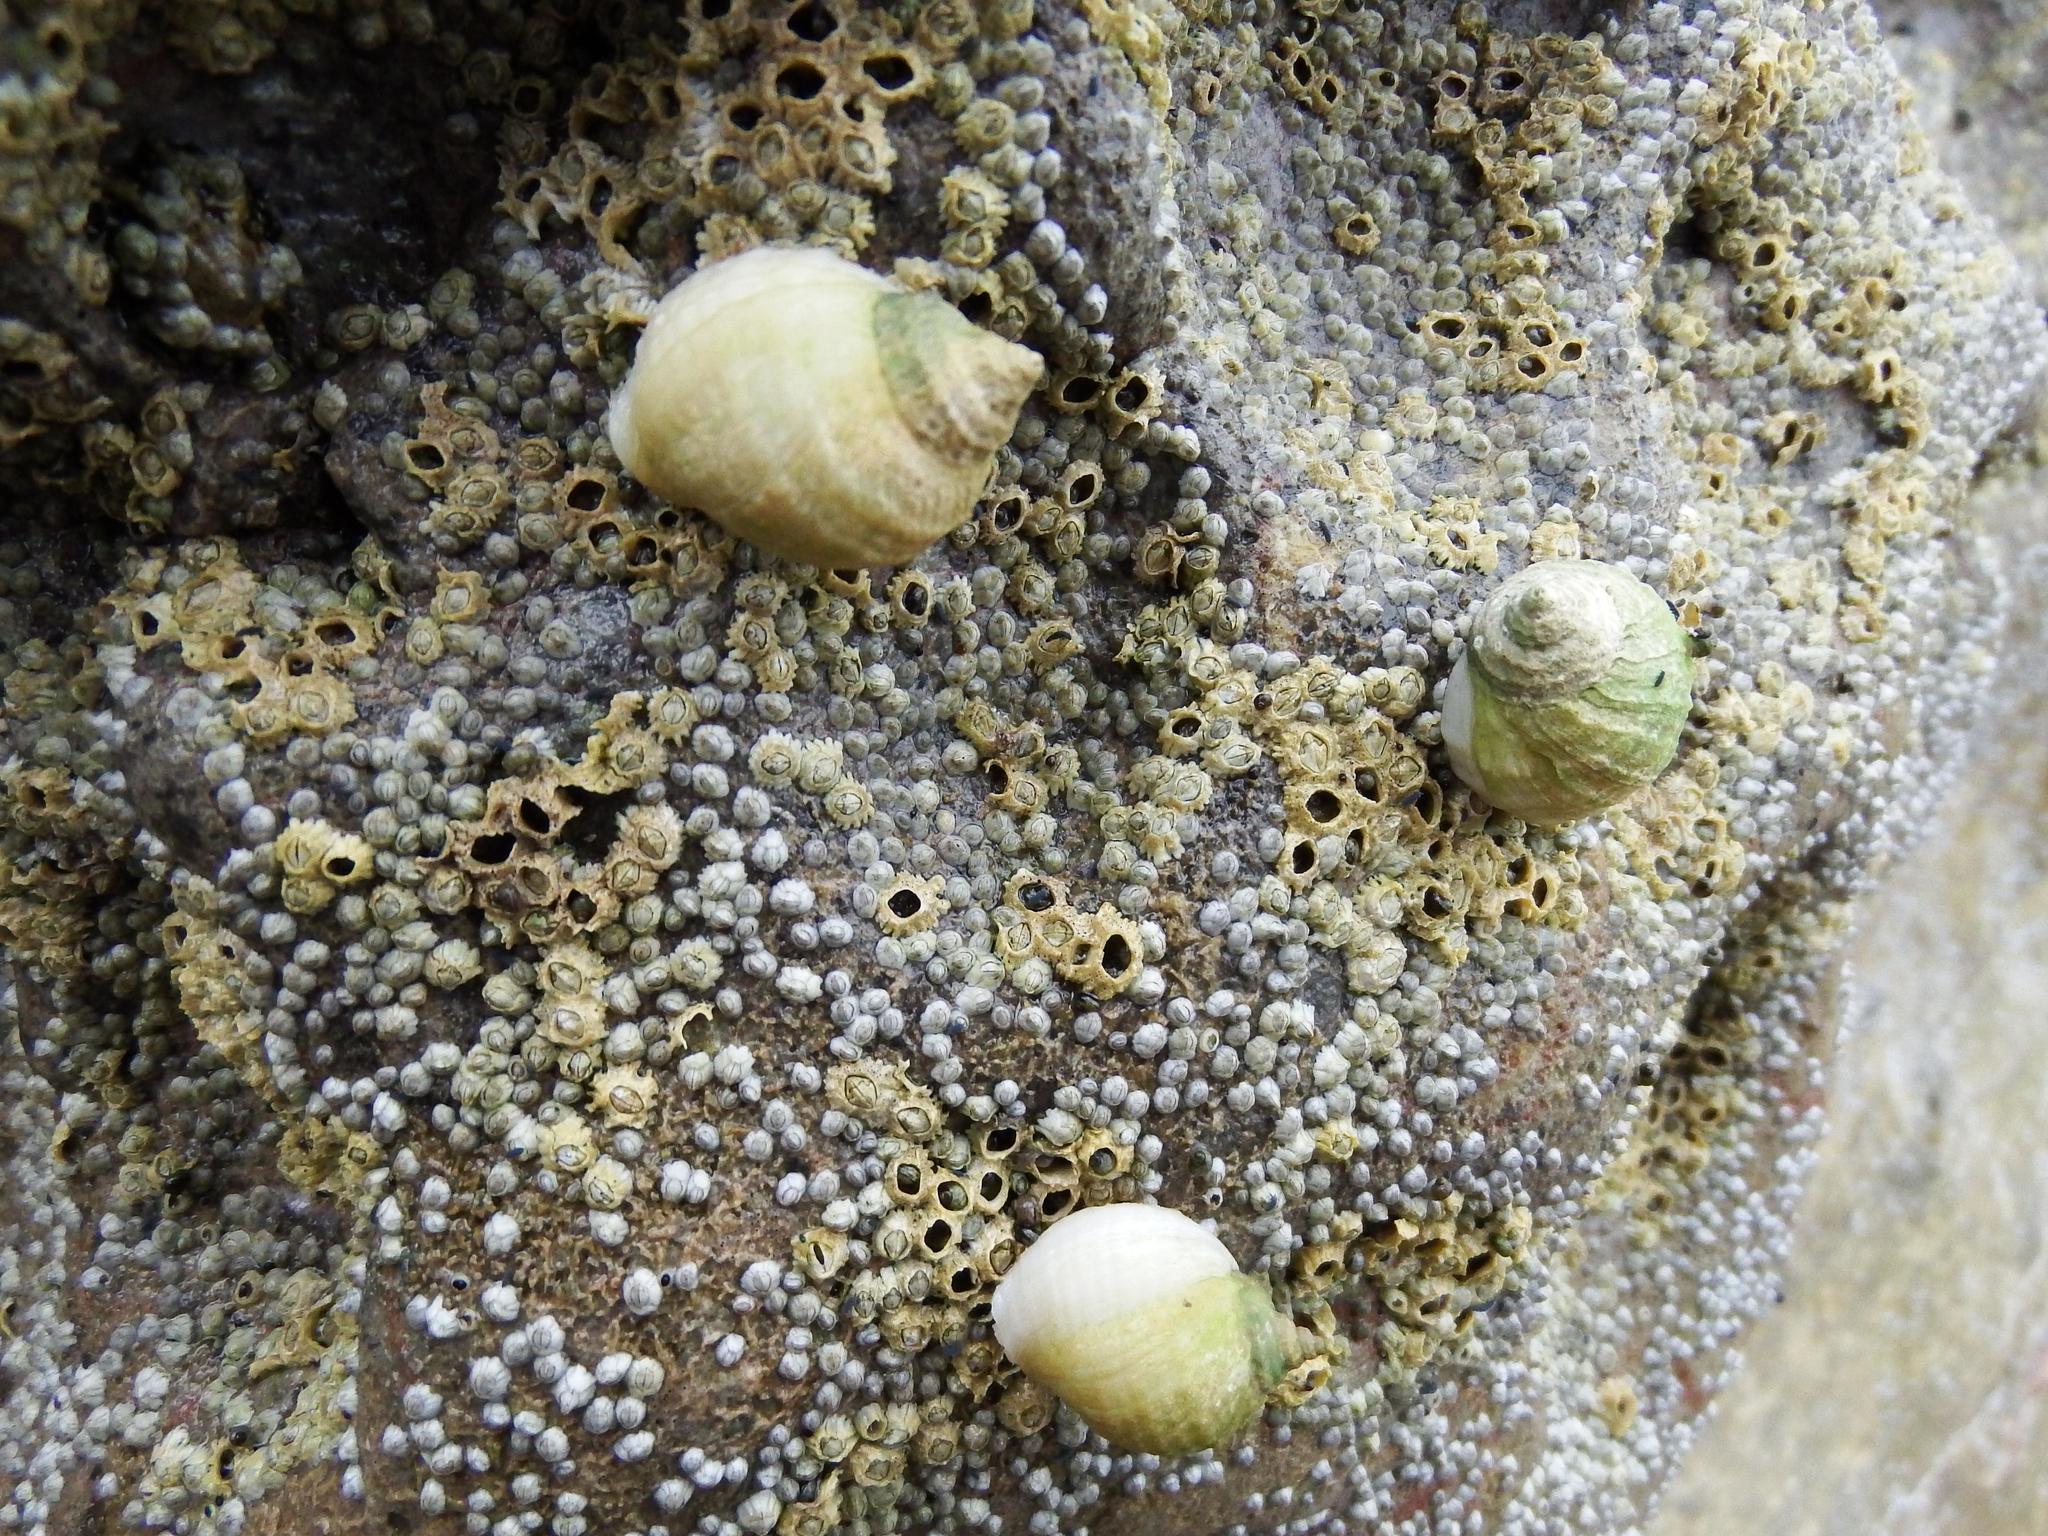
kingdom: Animalia
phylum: Mollusca
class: Gastropoda
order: Neogastropoda
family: Muricidae
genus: Nucella
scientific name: Nucella lapillus
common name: Dog whelk
